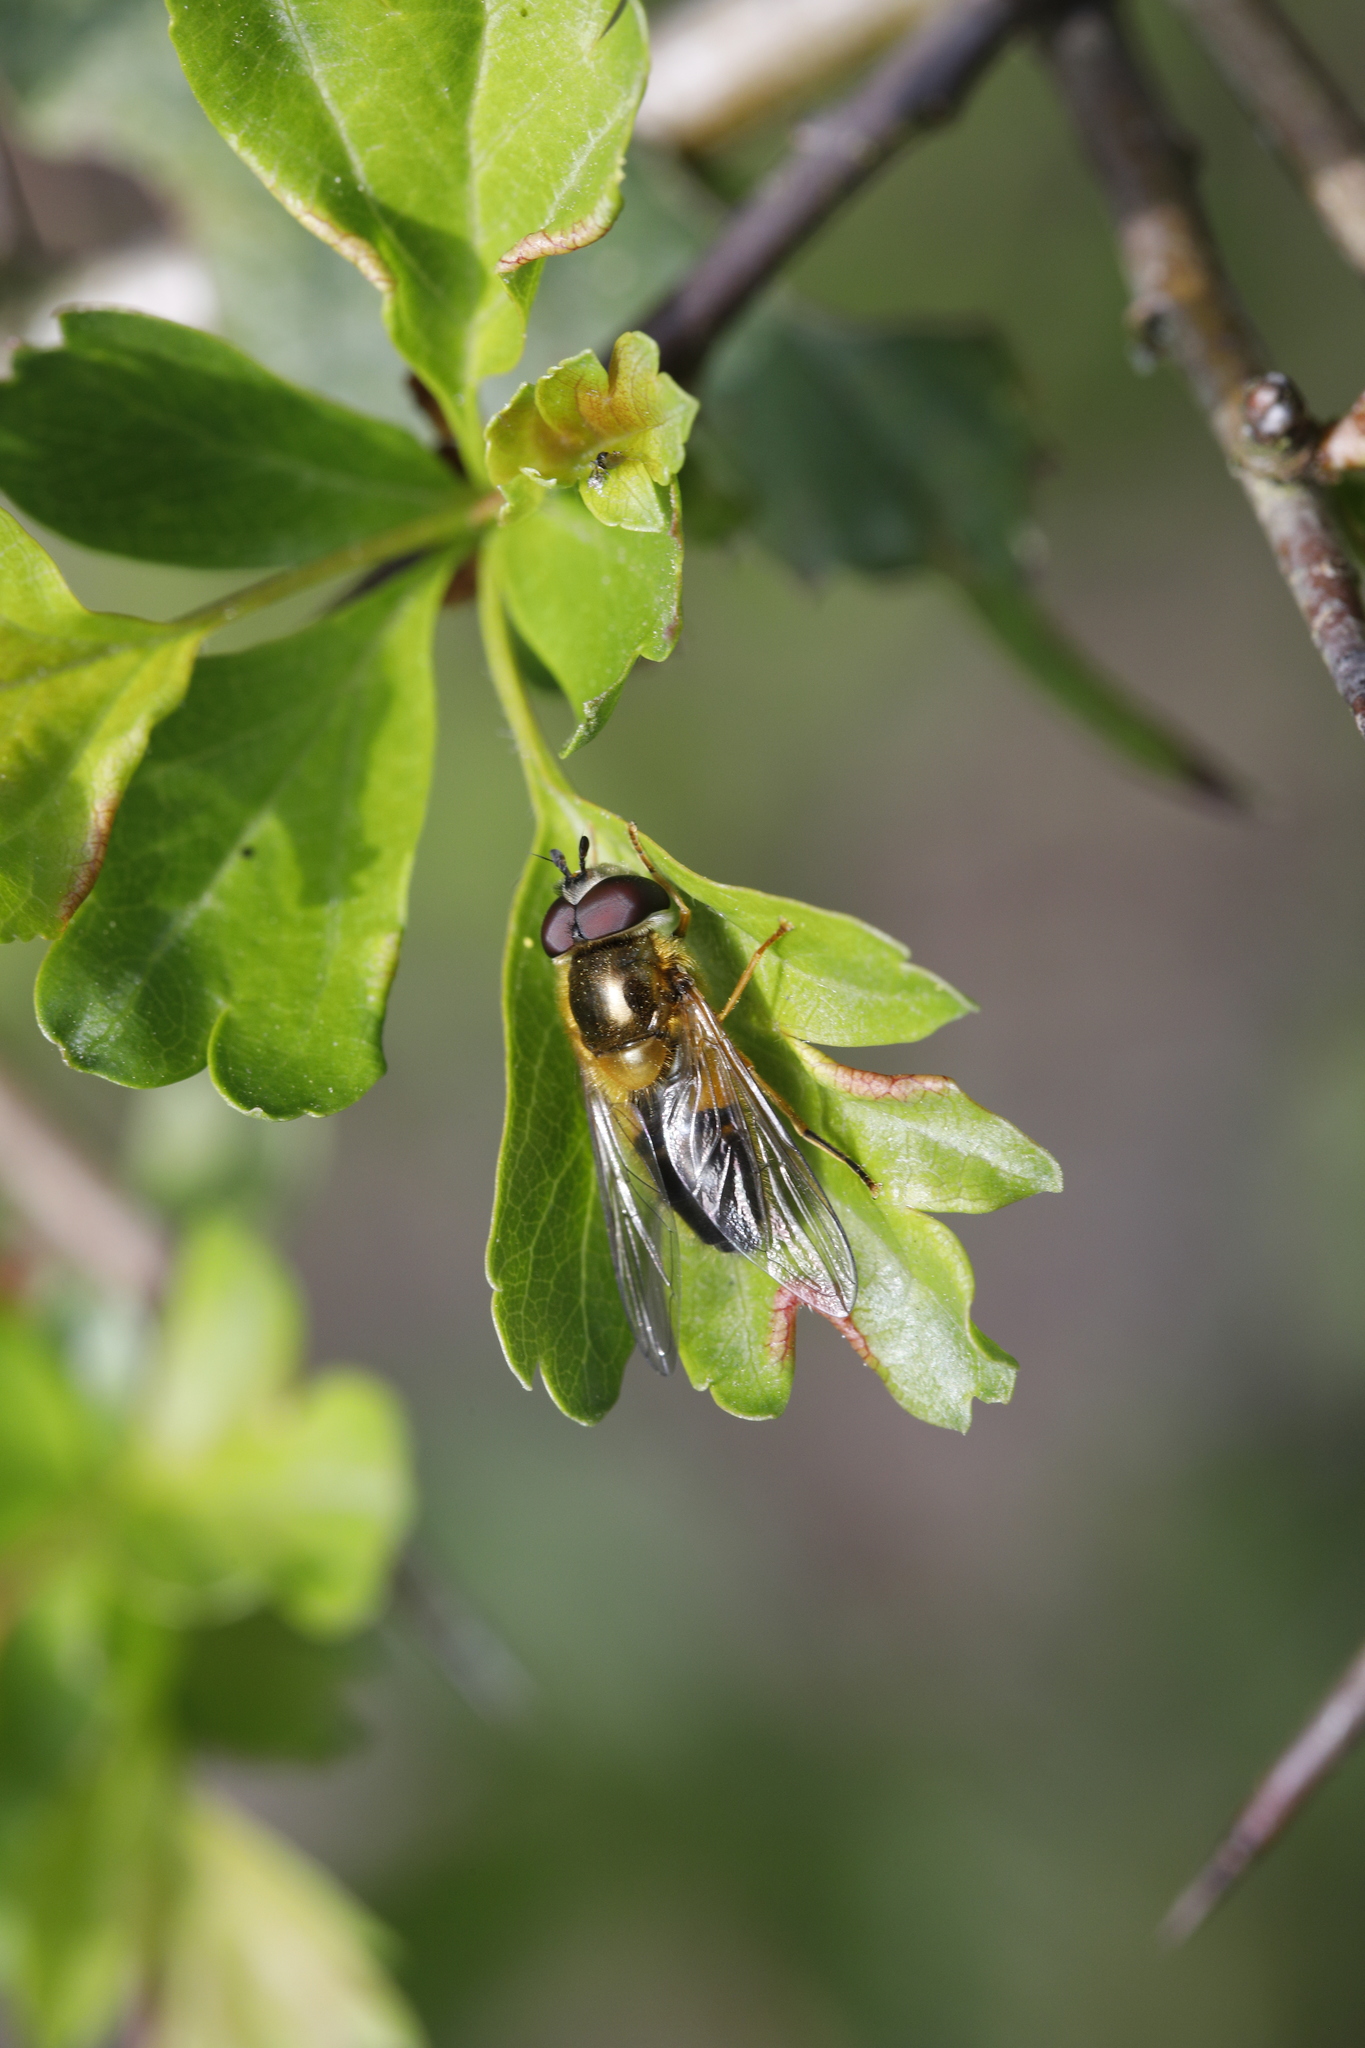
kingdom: Animalia
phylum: Arthropoda
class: Insecta
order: Diptera
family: Syrphidae
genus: Epistrophe
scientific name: Epistrophe eligans
